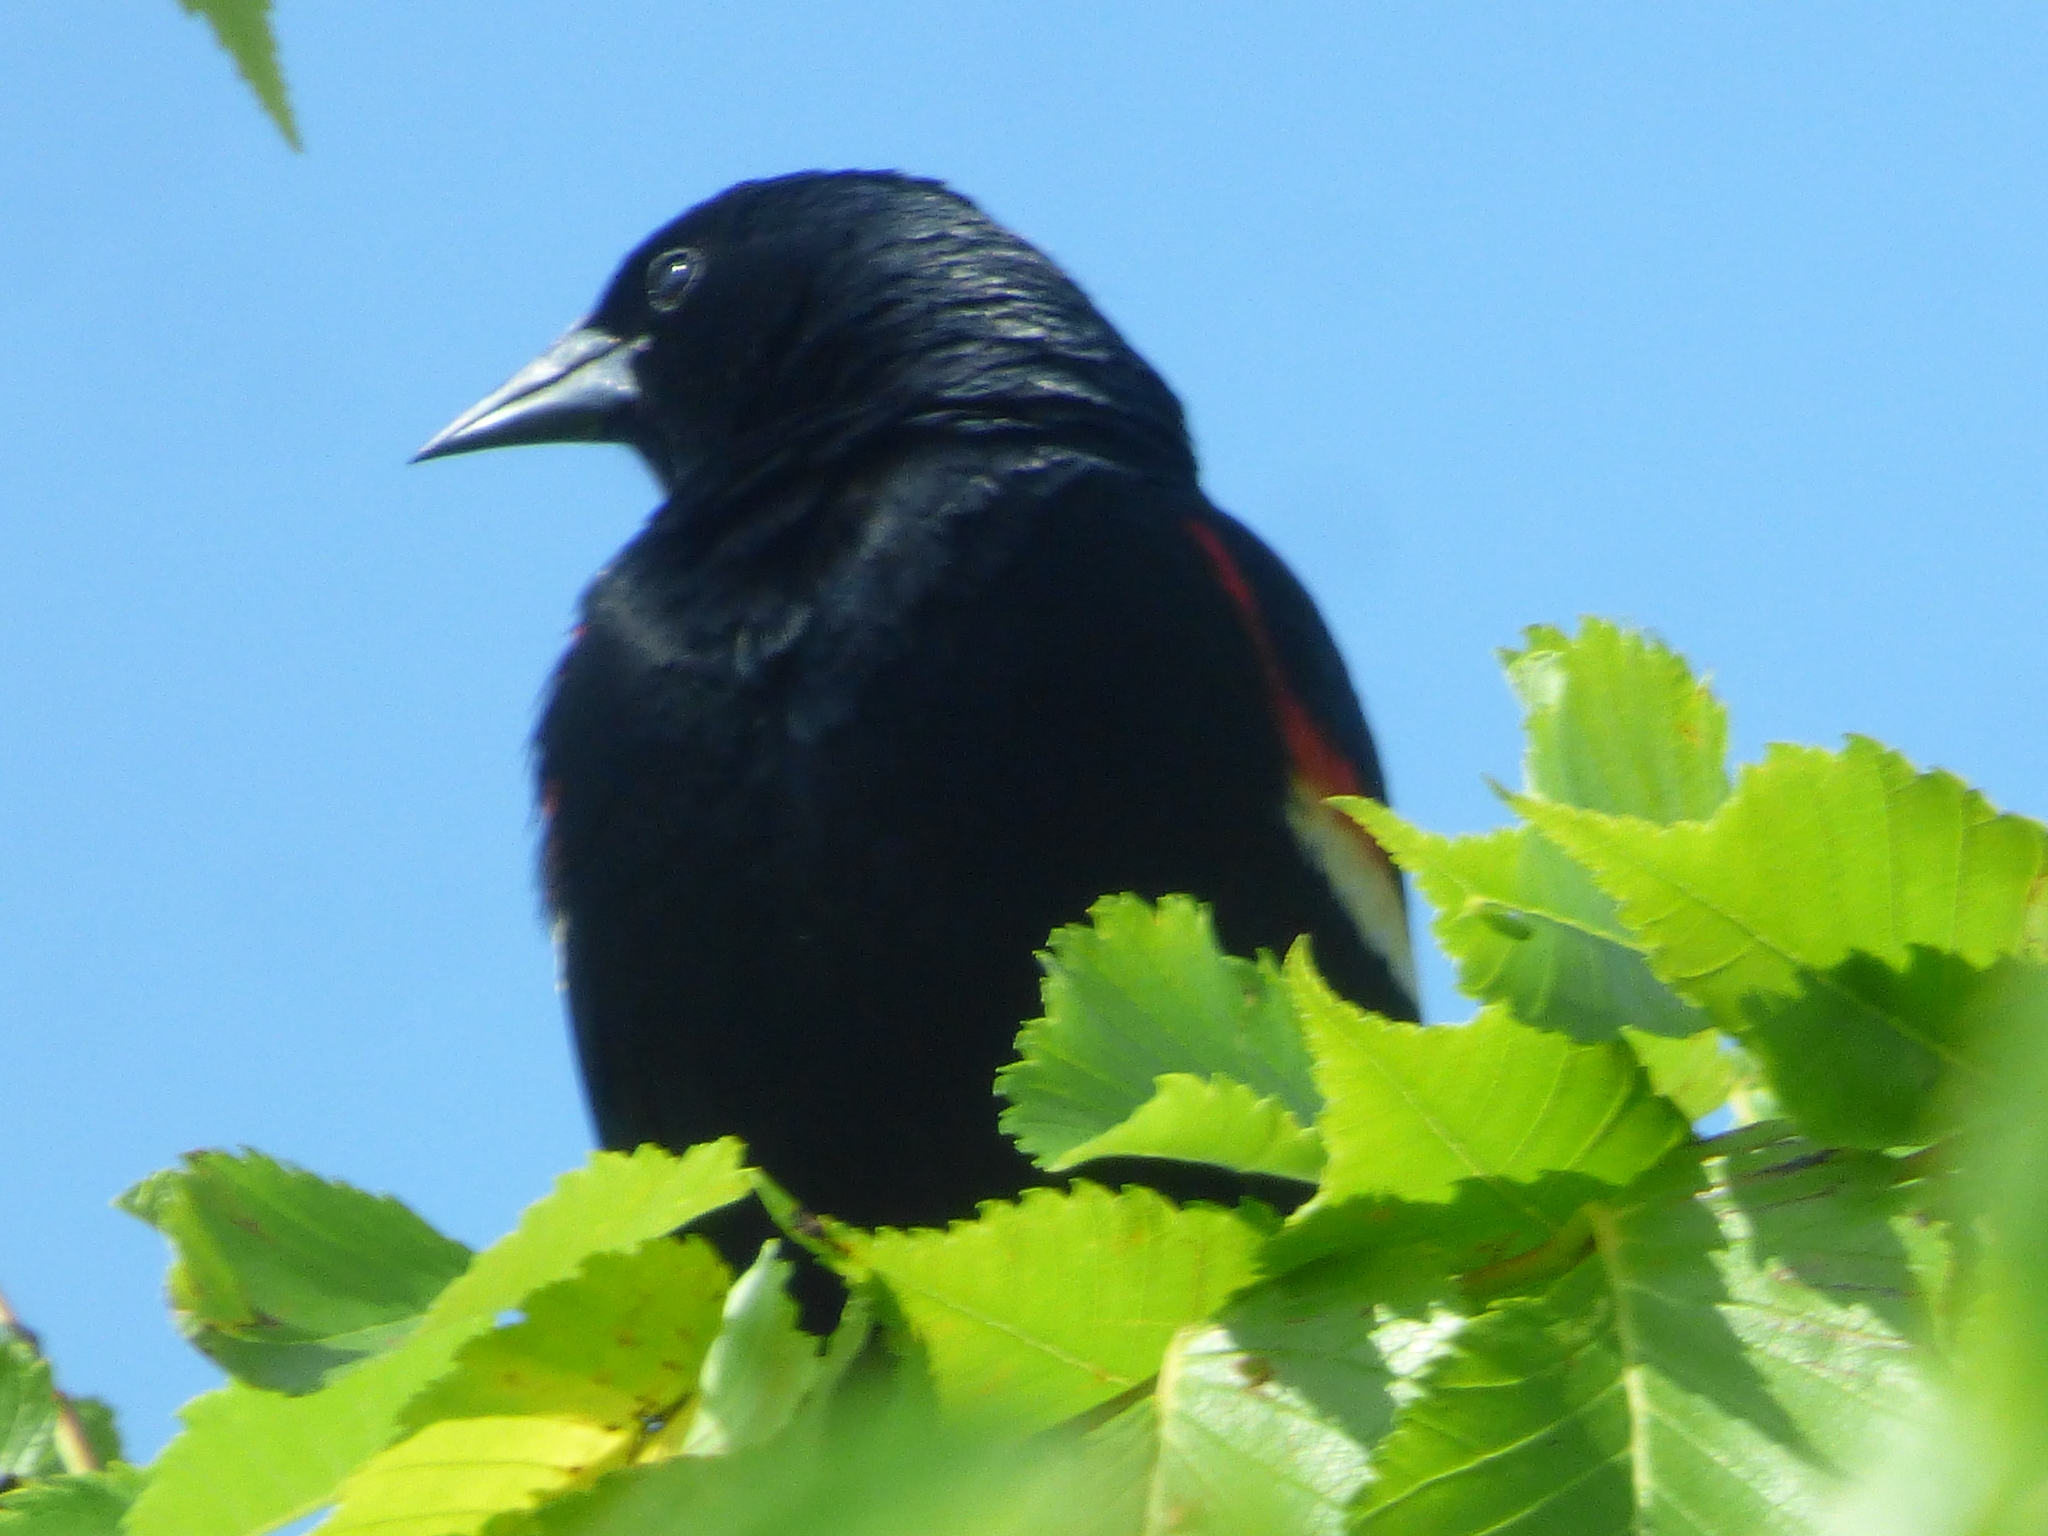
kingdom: Animalia
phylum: Chordata
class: Aves
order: Passeriformes
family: Icteridae
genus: Agelaius
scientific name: Agelaius phoeniceus
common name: Red-winged blackbird
